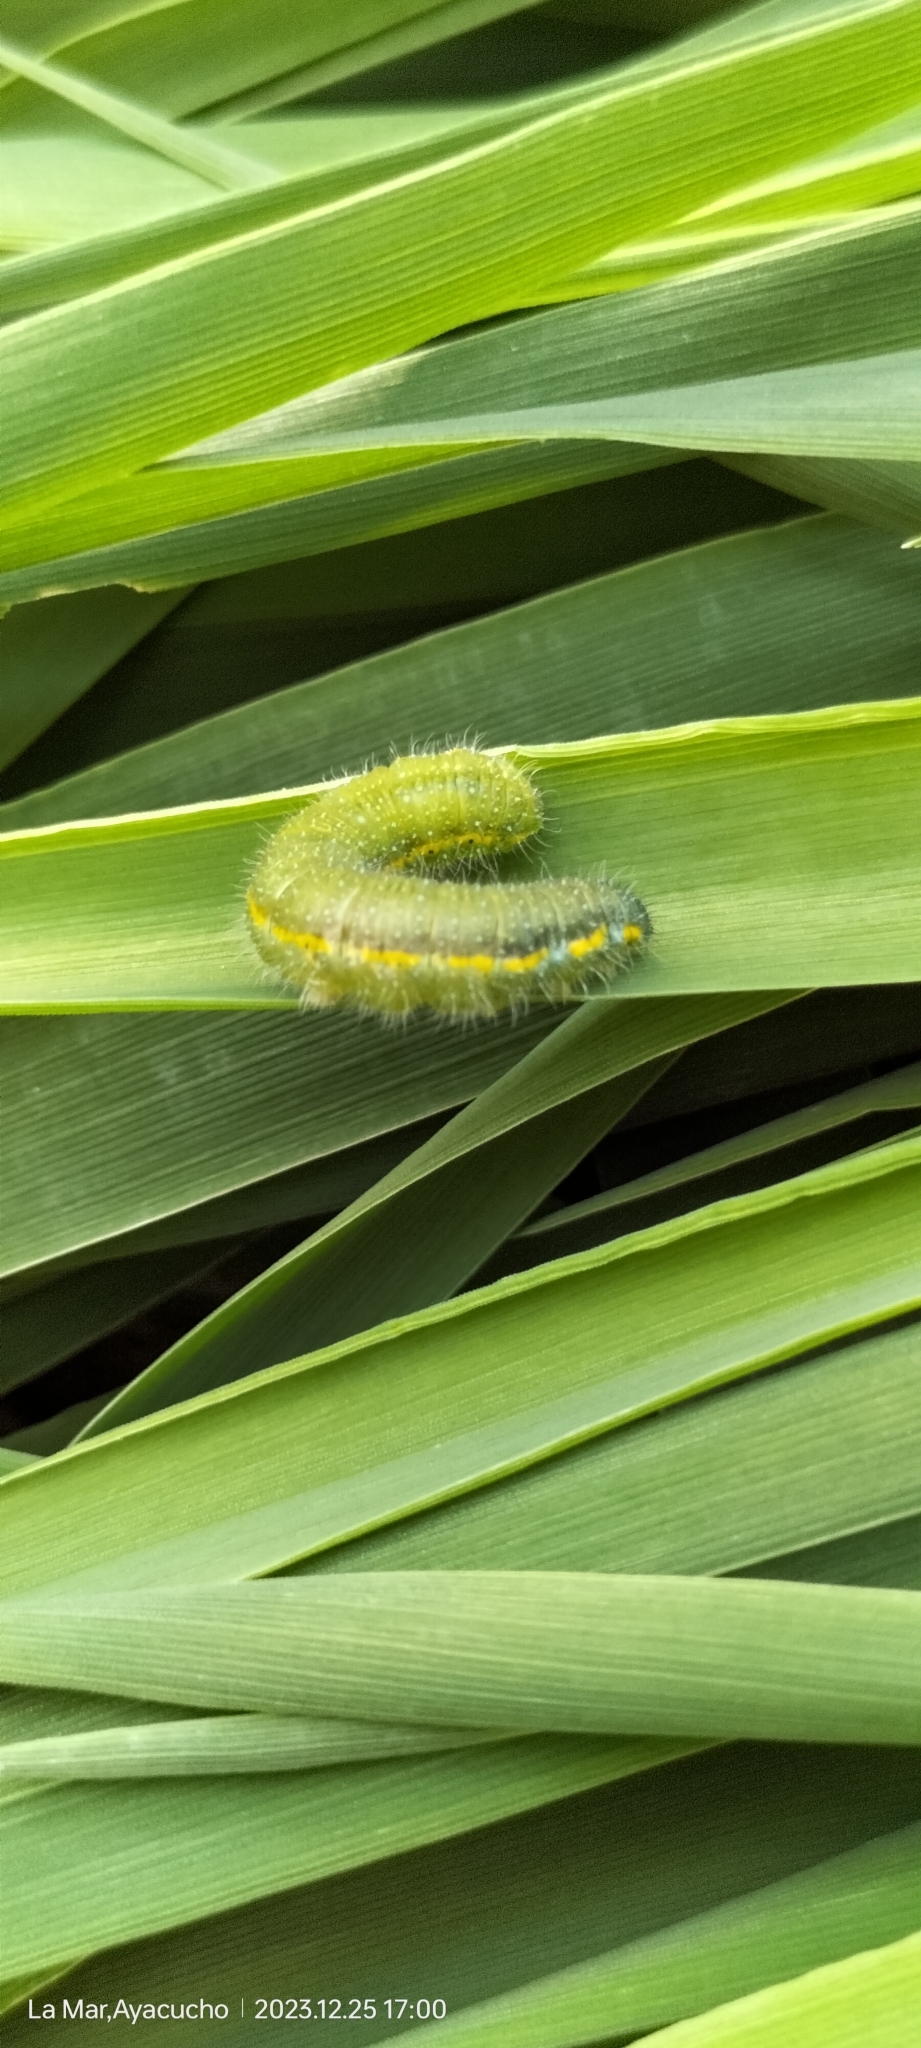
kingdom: Animalia
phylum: Arthropoda
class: Insecta
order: Lepidoptera
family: Pieridae
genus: Leptophobia
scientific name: Leptophobia aripa
